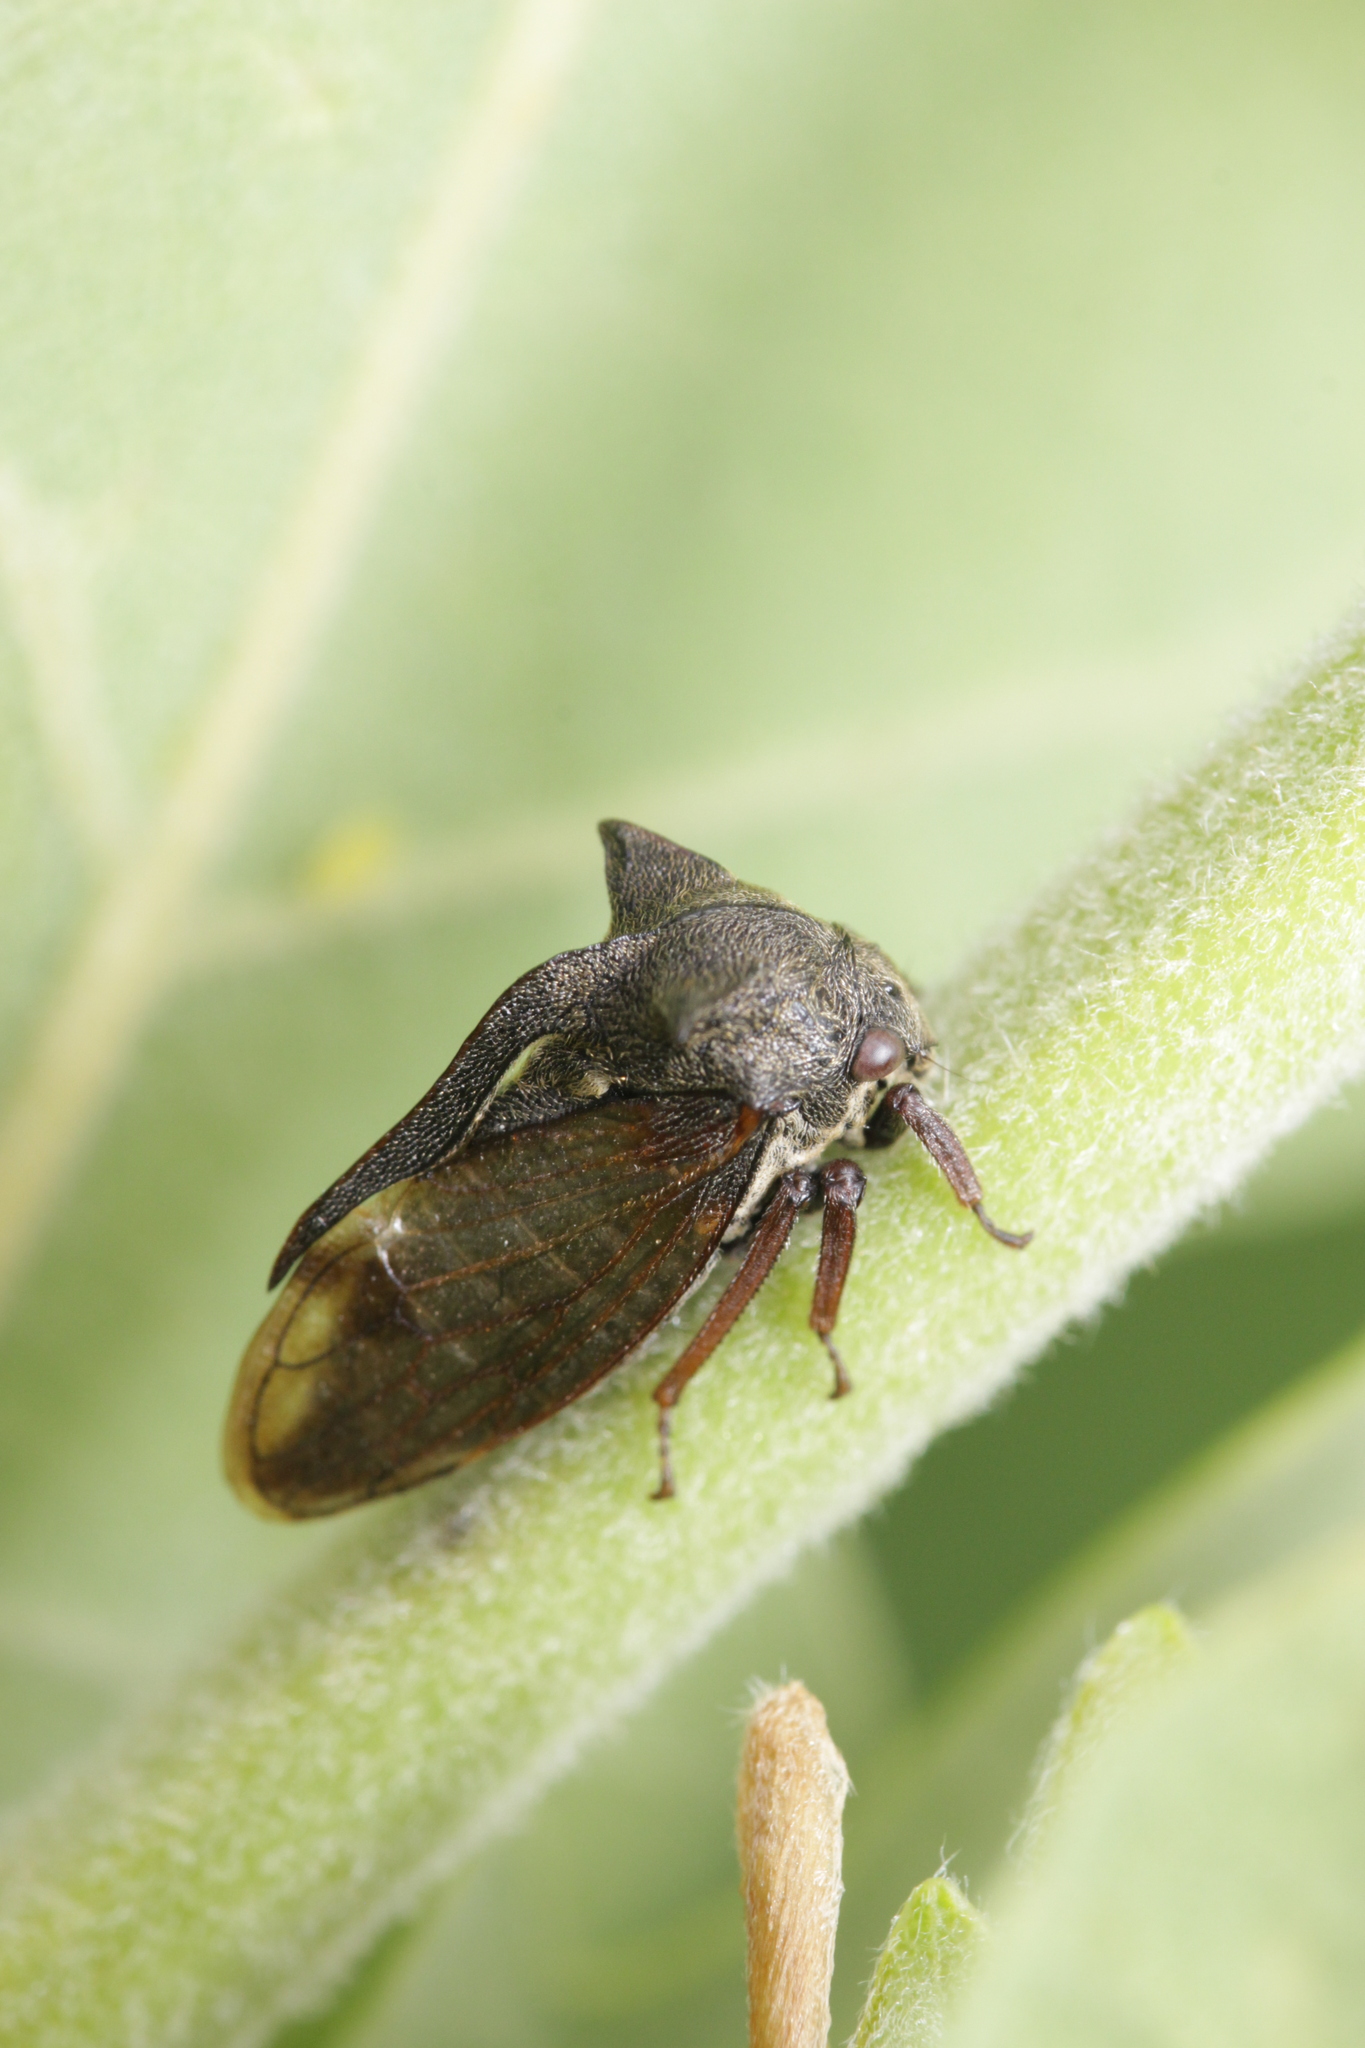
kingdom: Animalia
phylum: Arthropoda
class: Insecta
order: Hemiptera
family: Membracidae
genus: Centrotus
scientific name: Centrotus cornuta
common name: Treehopper
